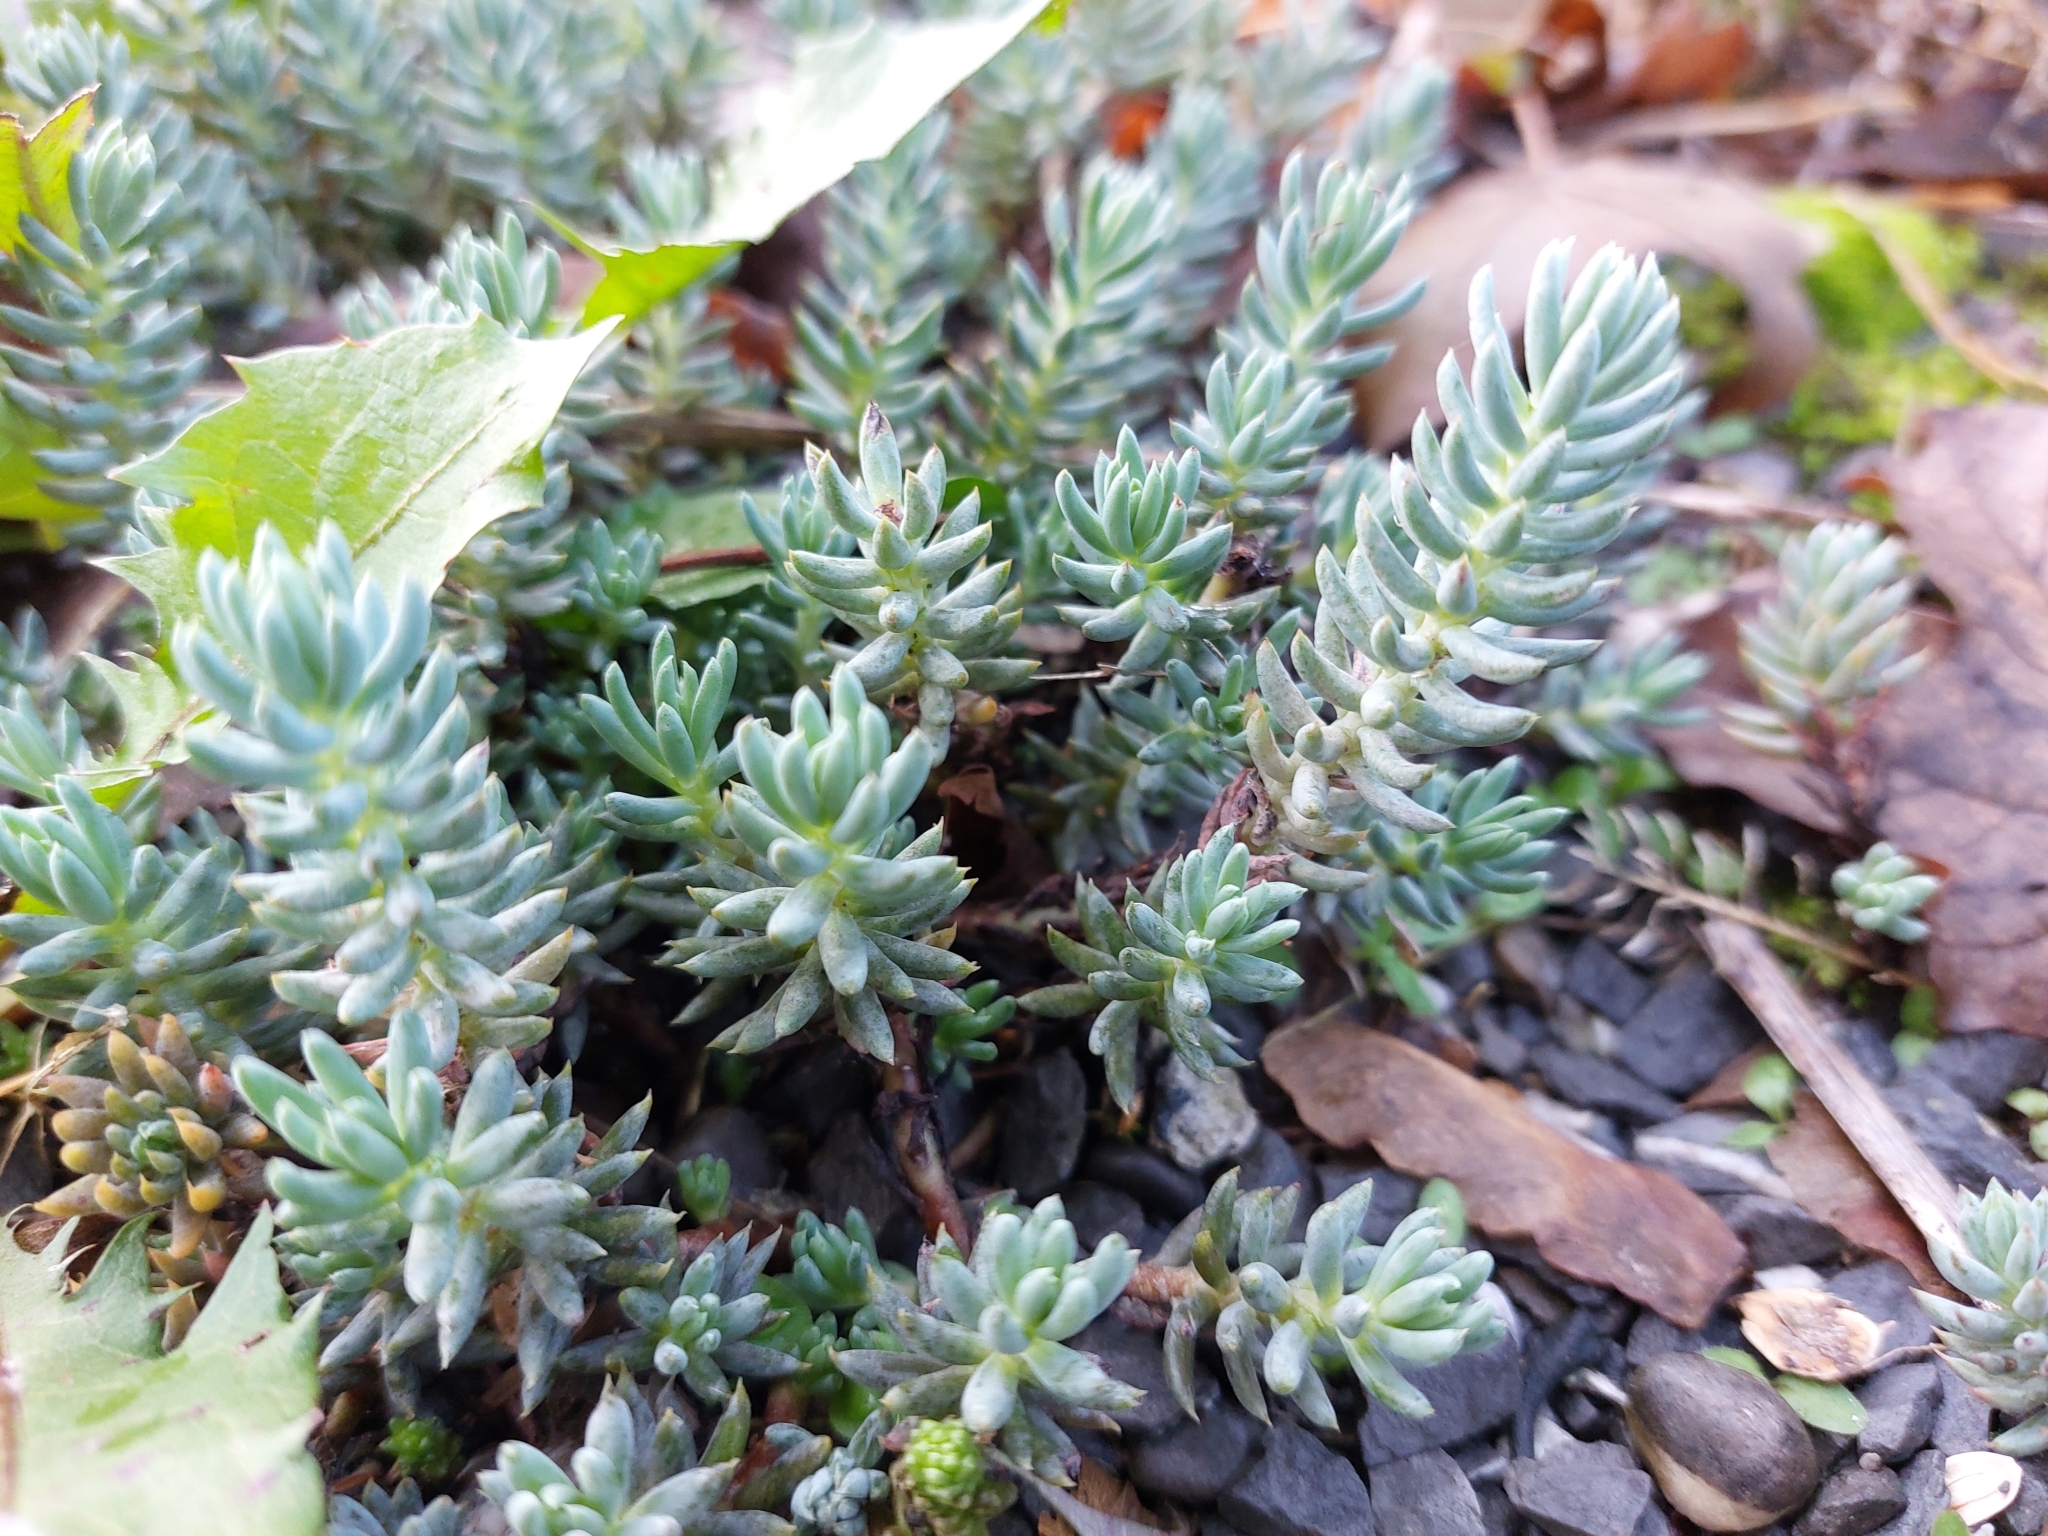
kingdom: Plantae
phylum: Tracheophyta
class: Magnoliopsida
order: Saxifragales
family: Crassulaceae
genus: Petrosedum
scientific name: Petrosedum rupestre
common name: Jenny's stonecrop
